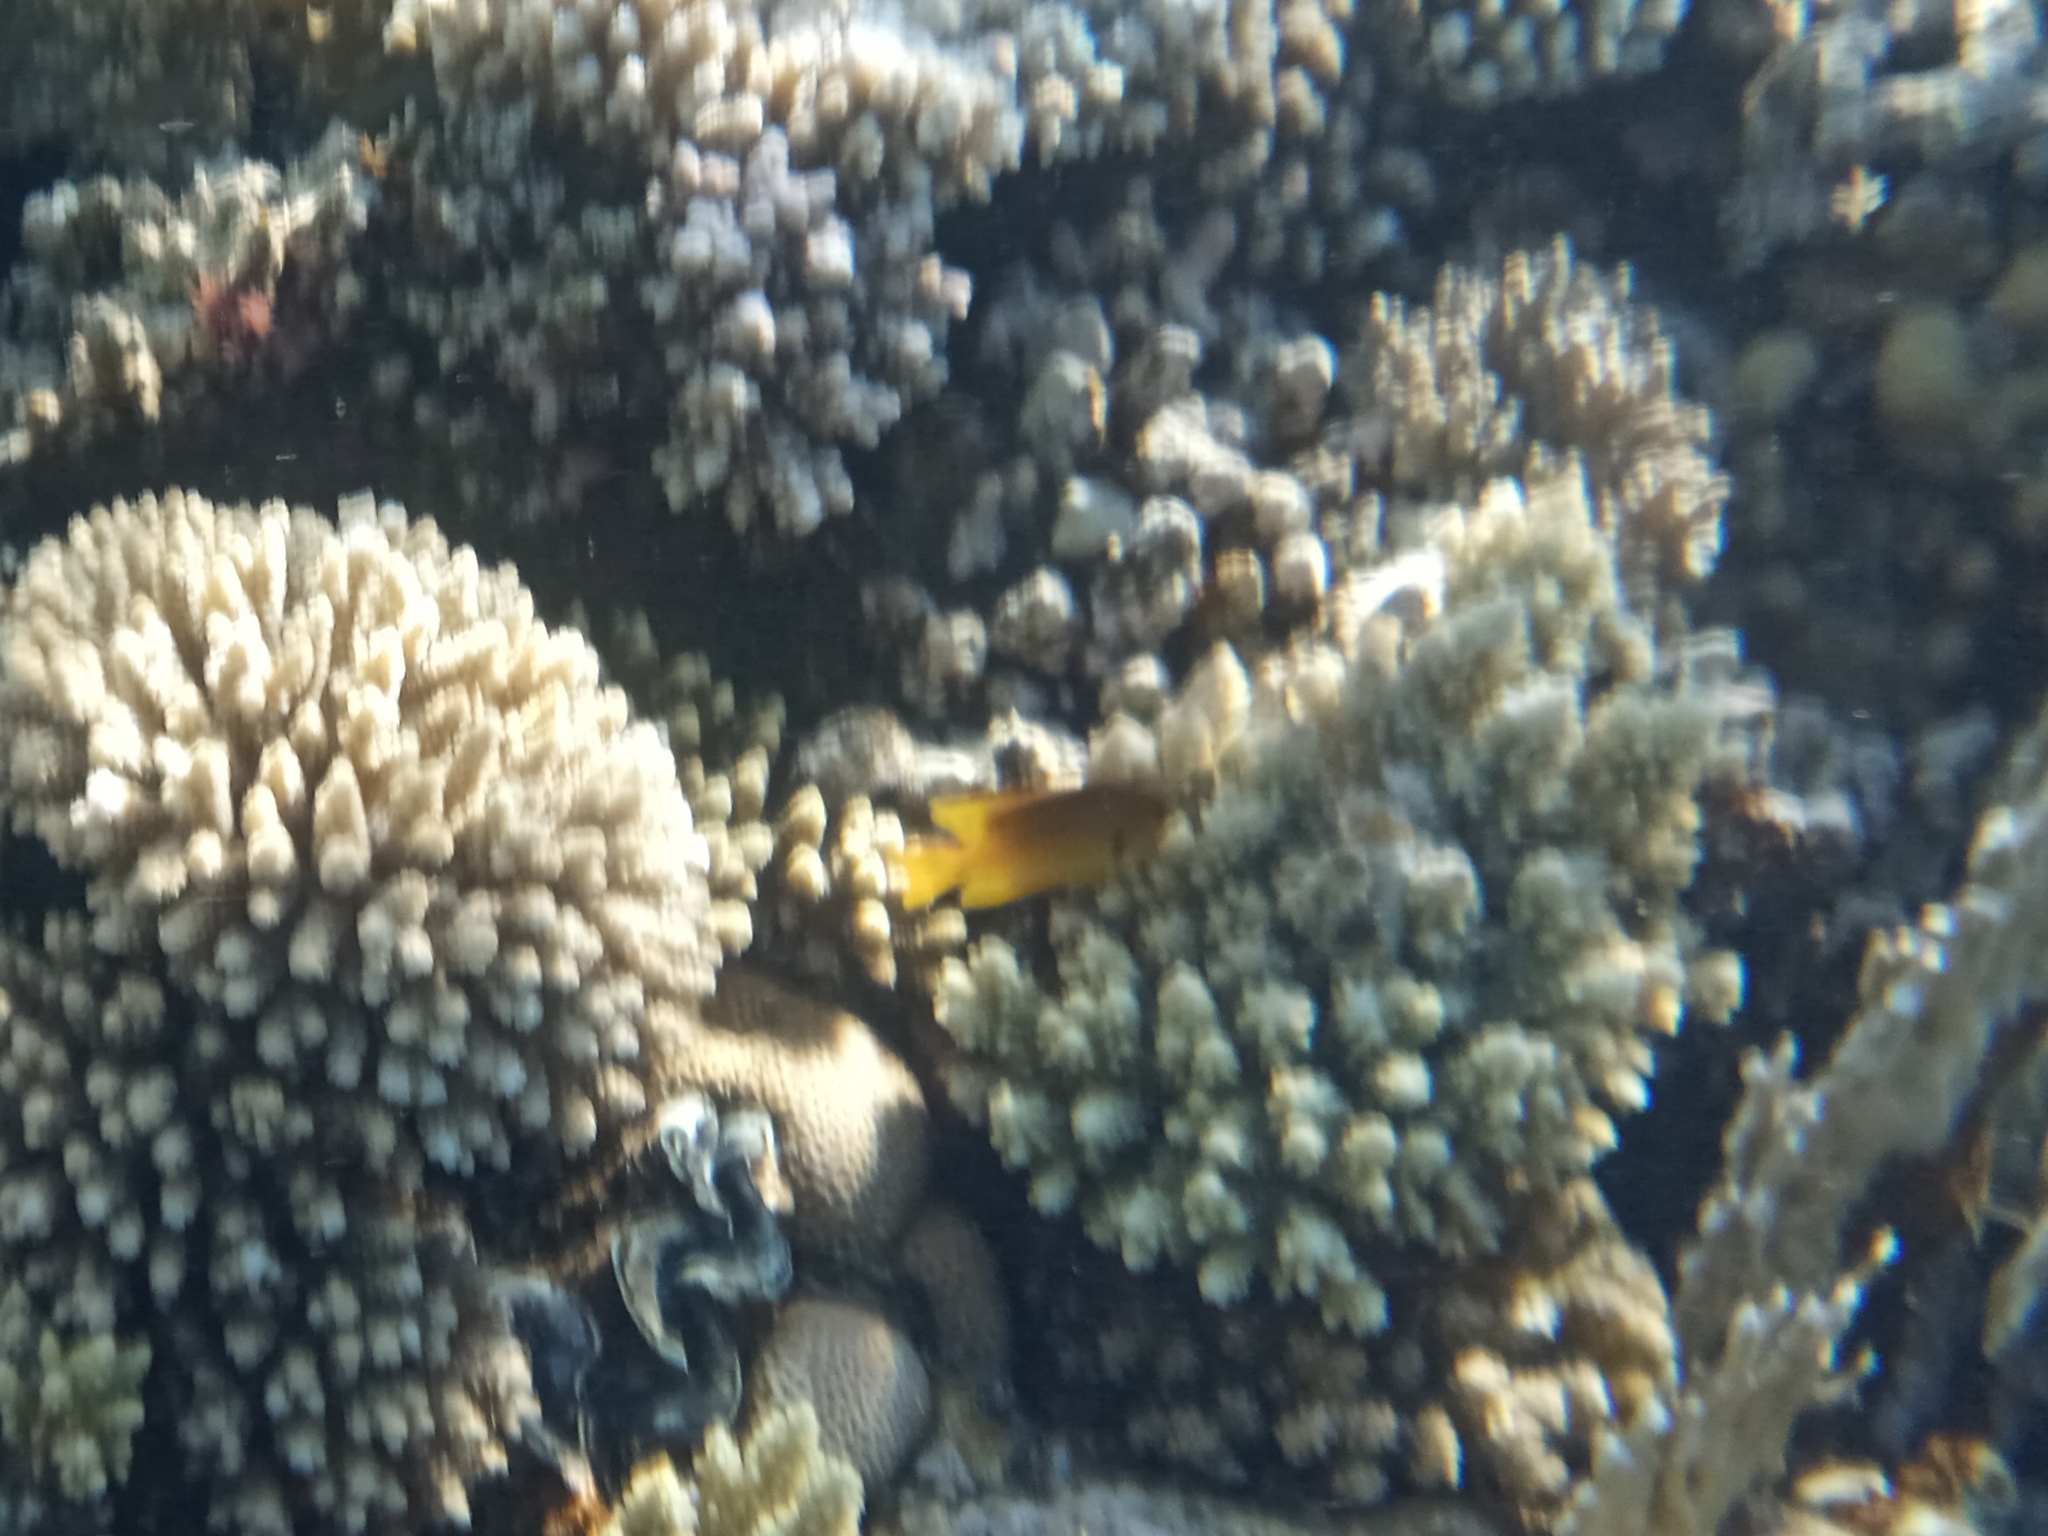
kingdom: Animalia
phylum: Chordata
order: Perciformes
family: Pomacentridae
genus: Pomacentrus
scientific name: Pomacentrus sulfureus
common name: Sulfur damsel
